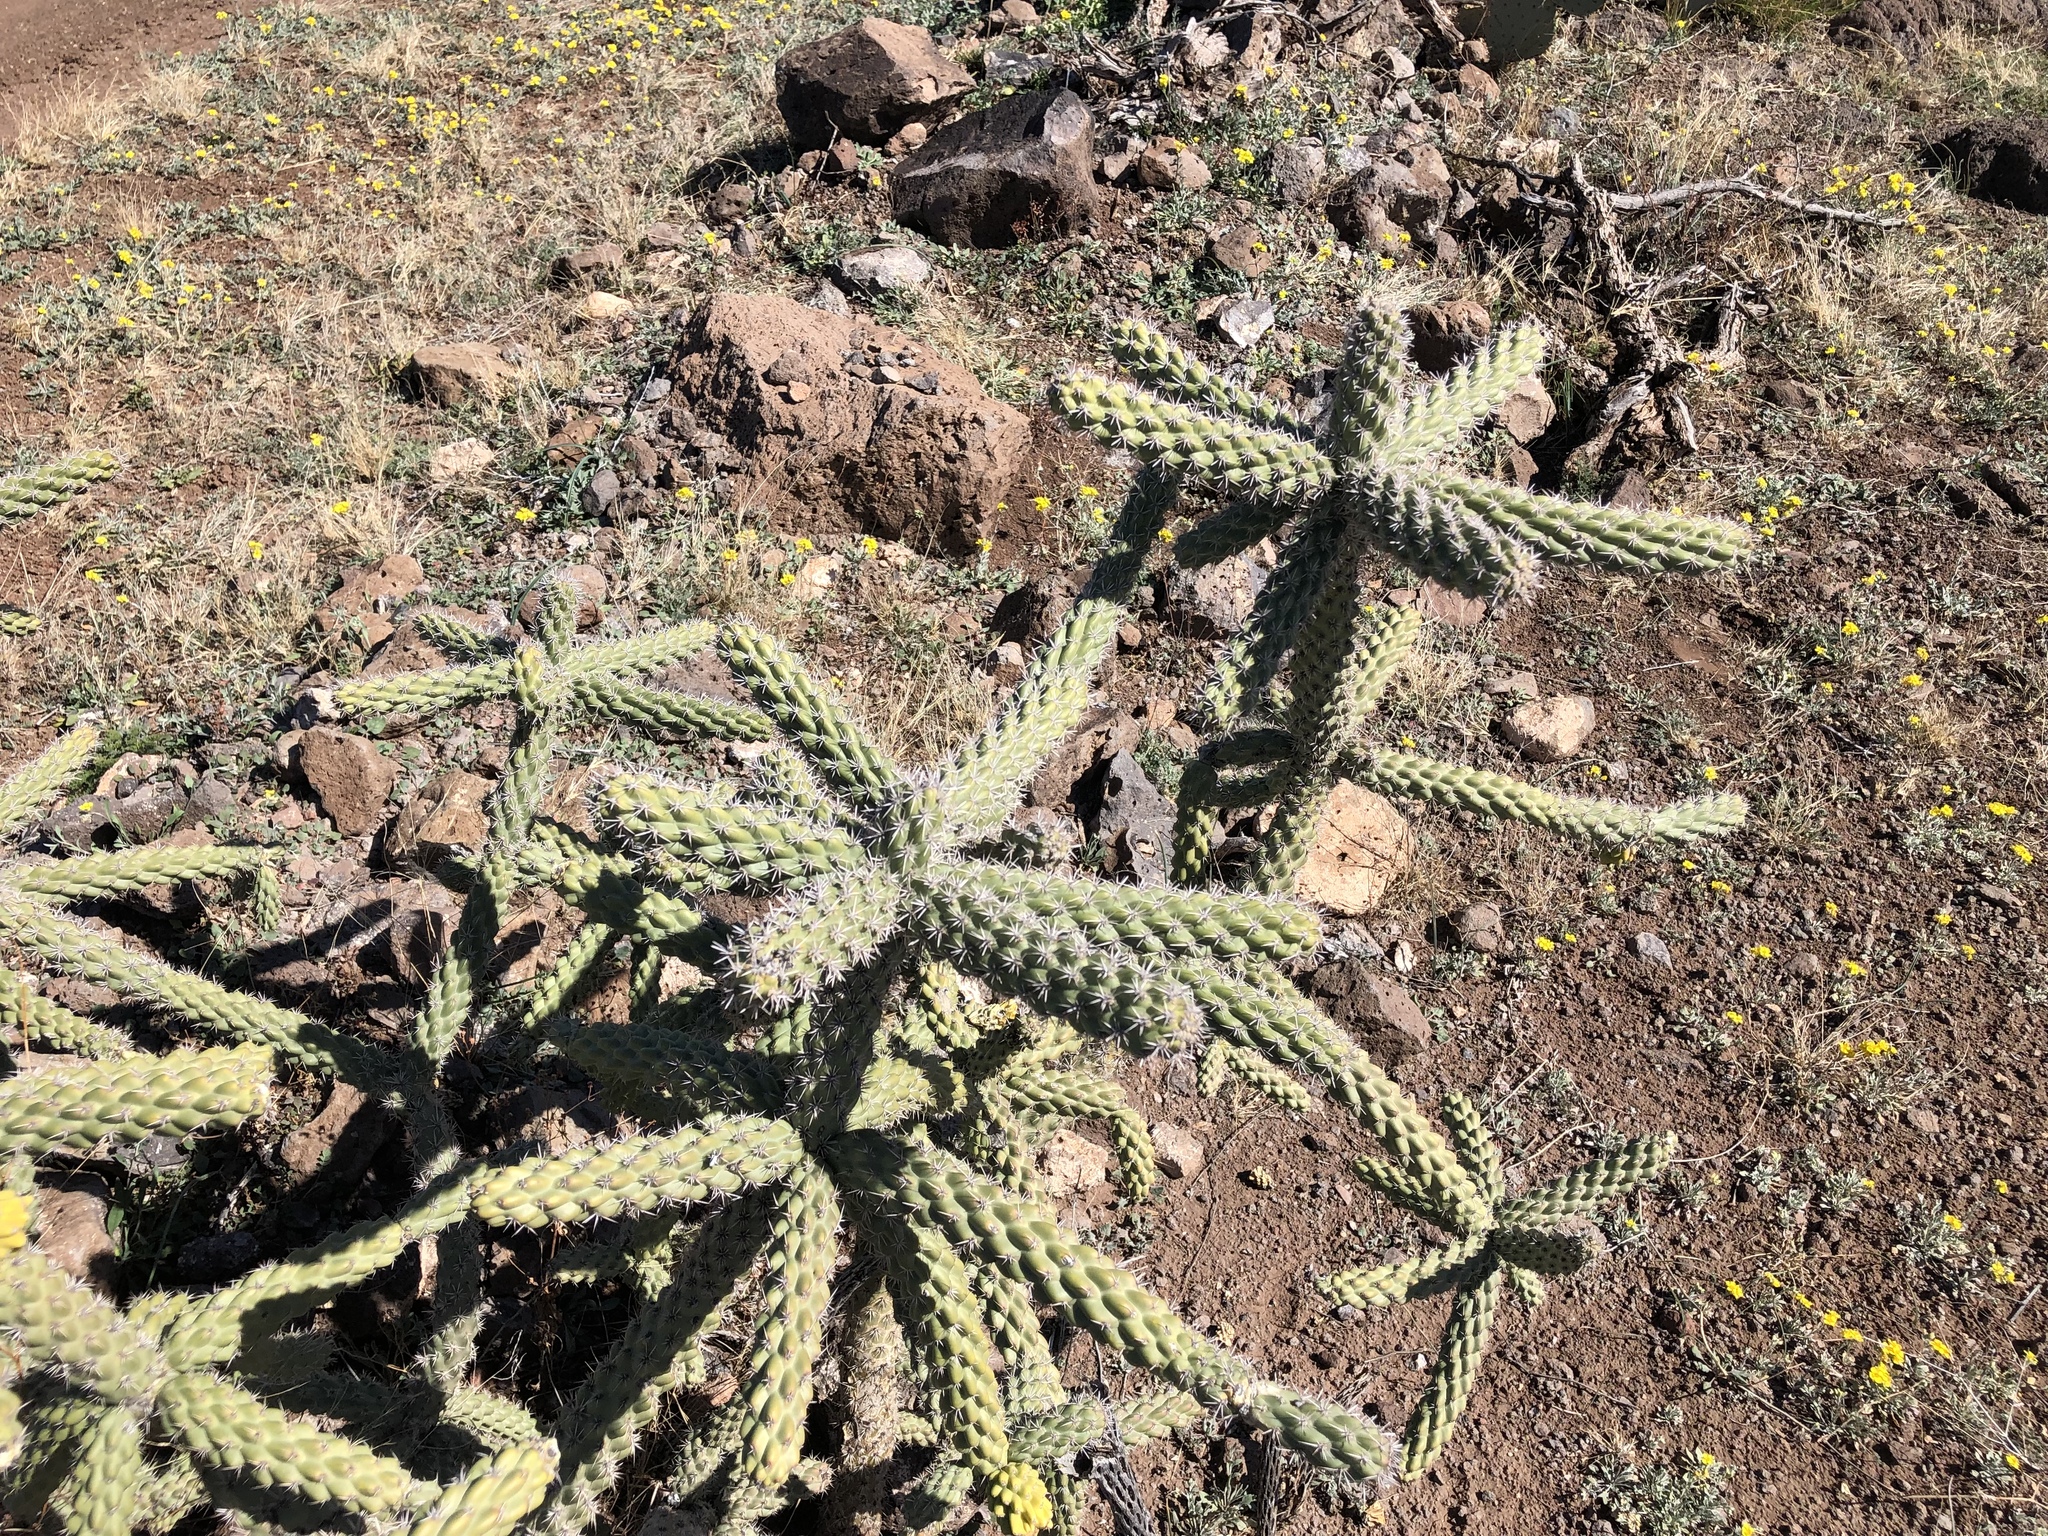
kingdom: Plantae
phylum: Tracheophyta
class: Magnoliopsida
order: Caryophyllales
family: Cactaceae
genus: Cylindropuntia
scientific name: Cylindropuntia imbricata
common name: Candelabrum cactus
